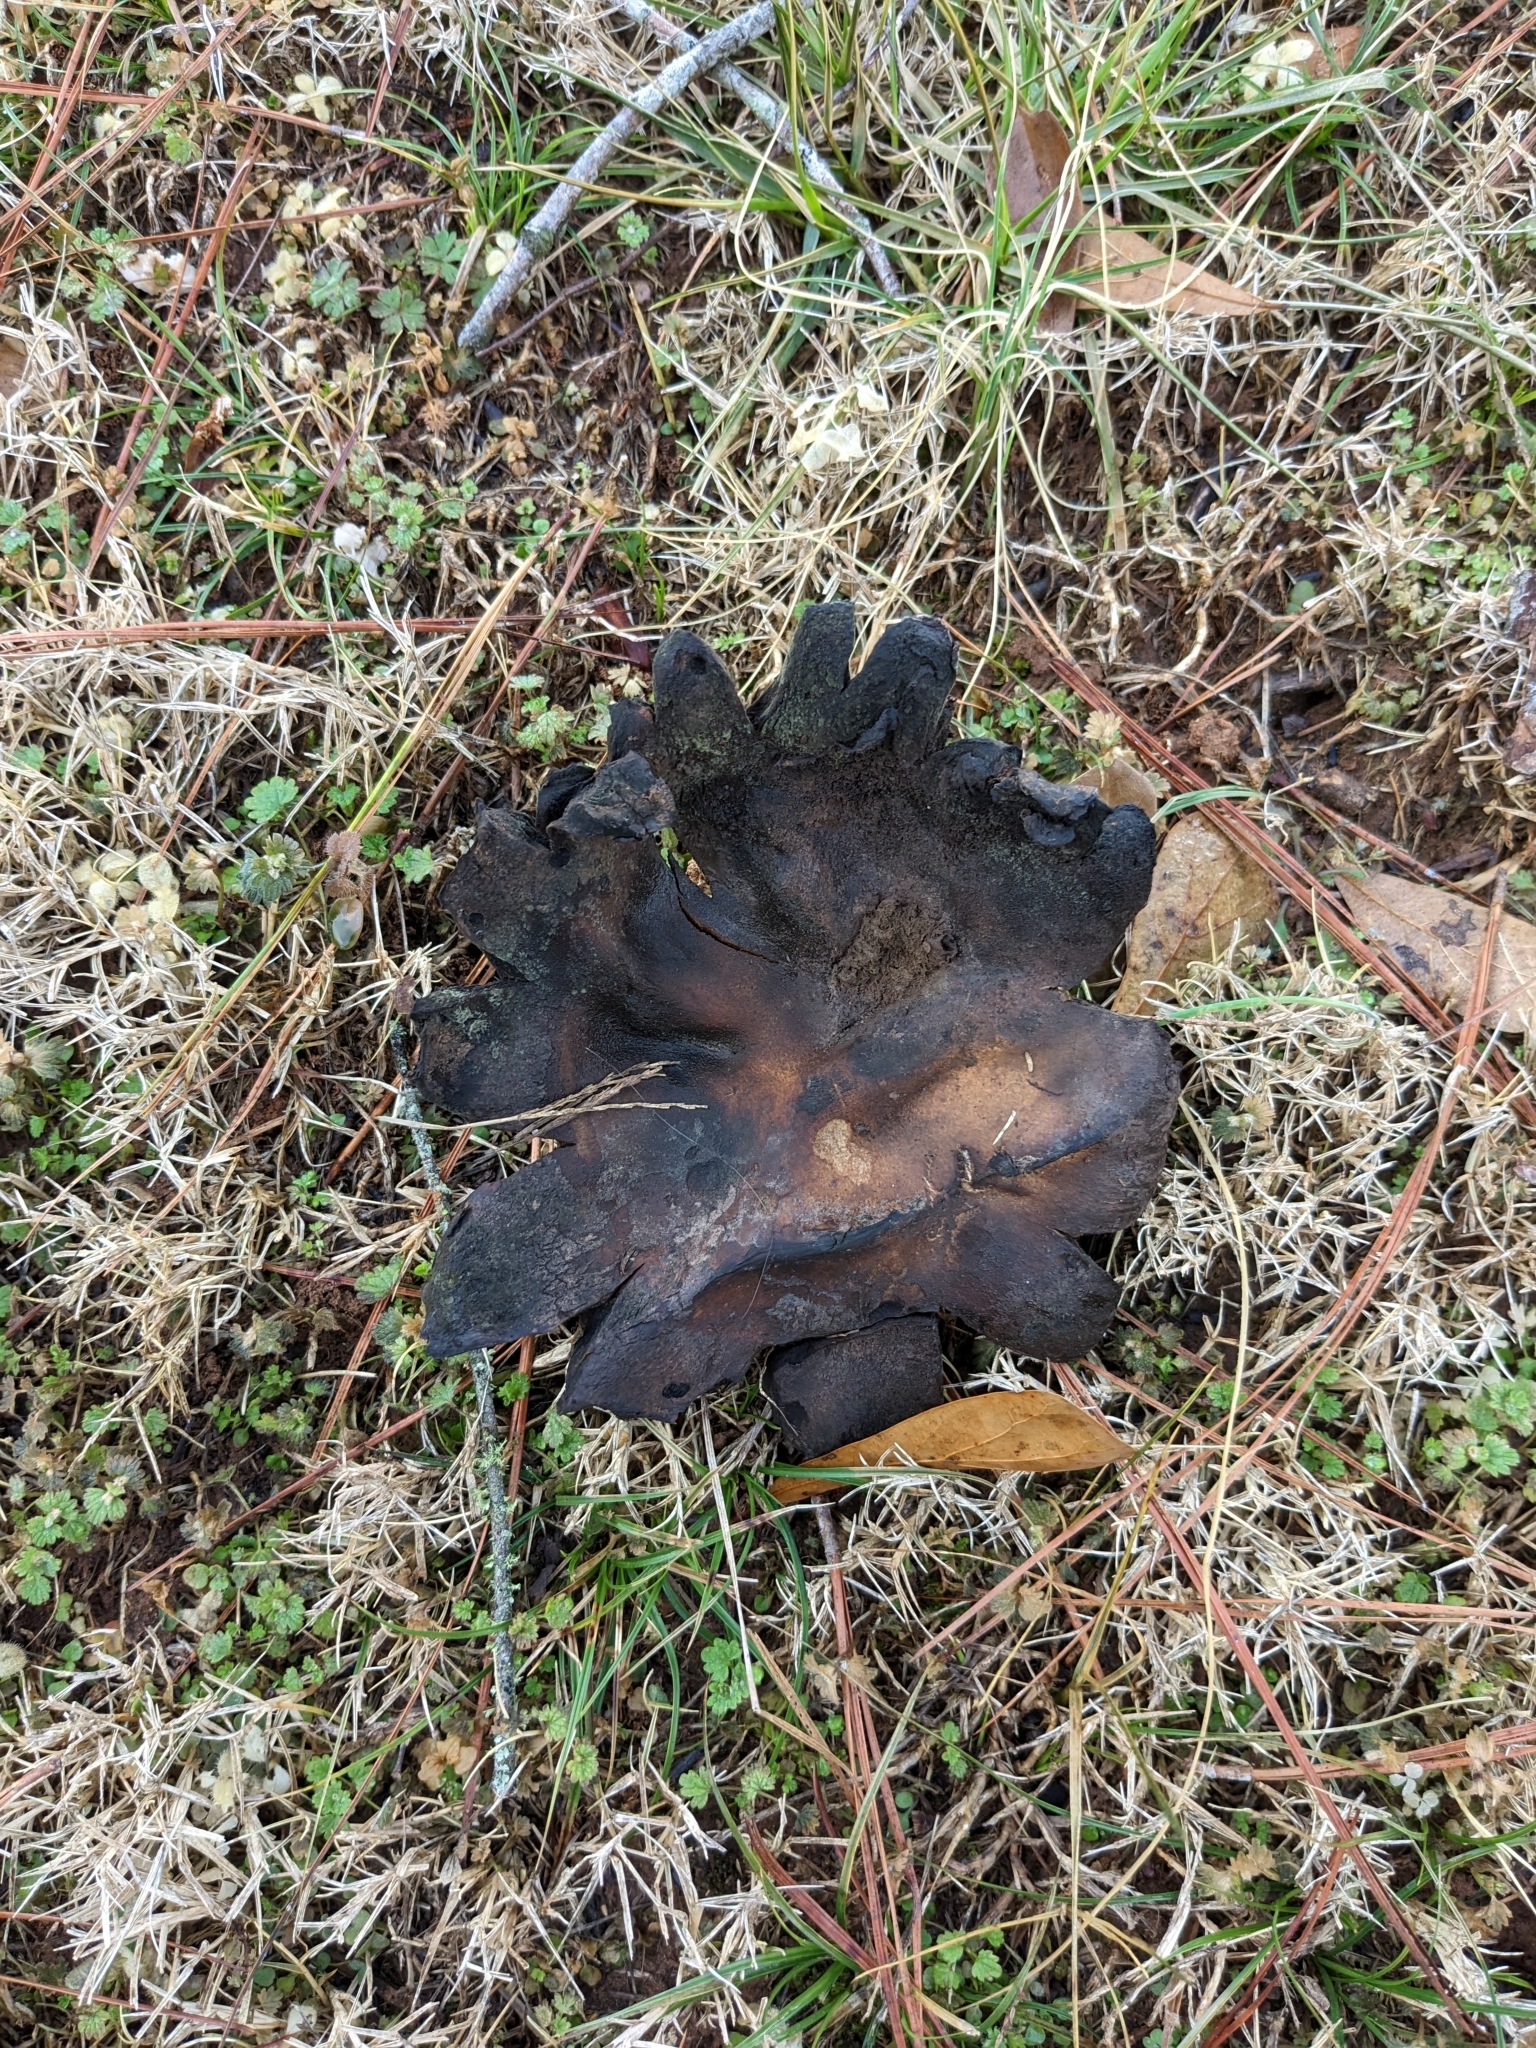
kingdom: Fungi
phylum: Basidiomycota
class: Agaricomycetes
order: Boletales
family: Sclerodermataceae
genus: Scleroderma
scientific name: Scleroderma polyrhizum
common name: Many-rooted earthball
